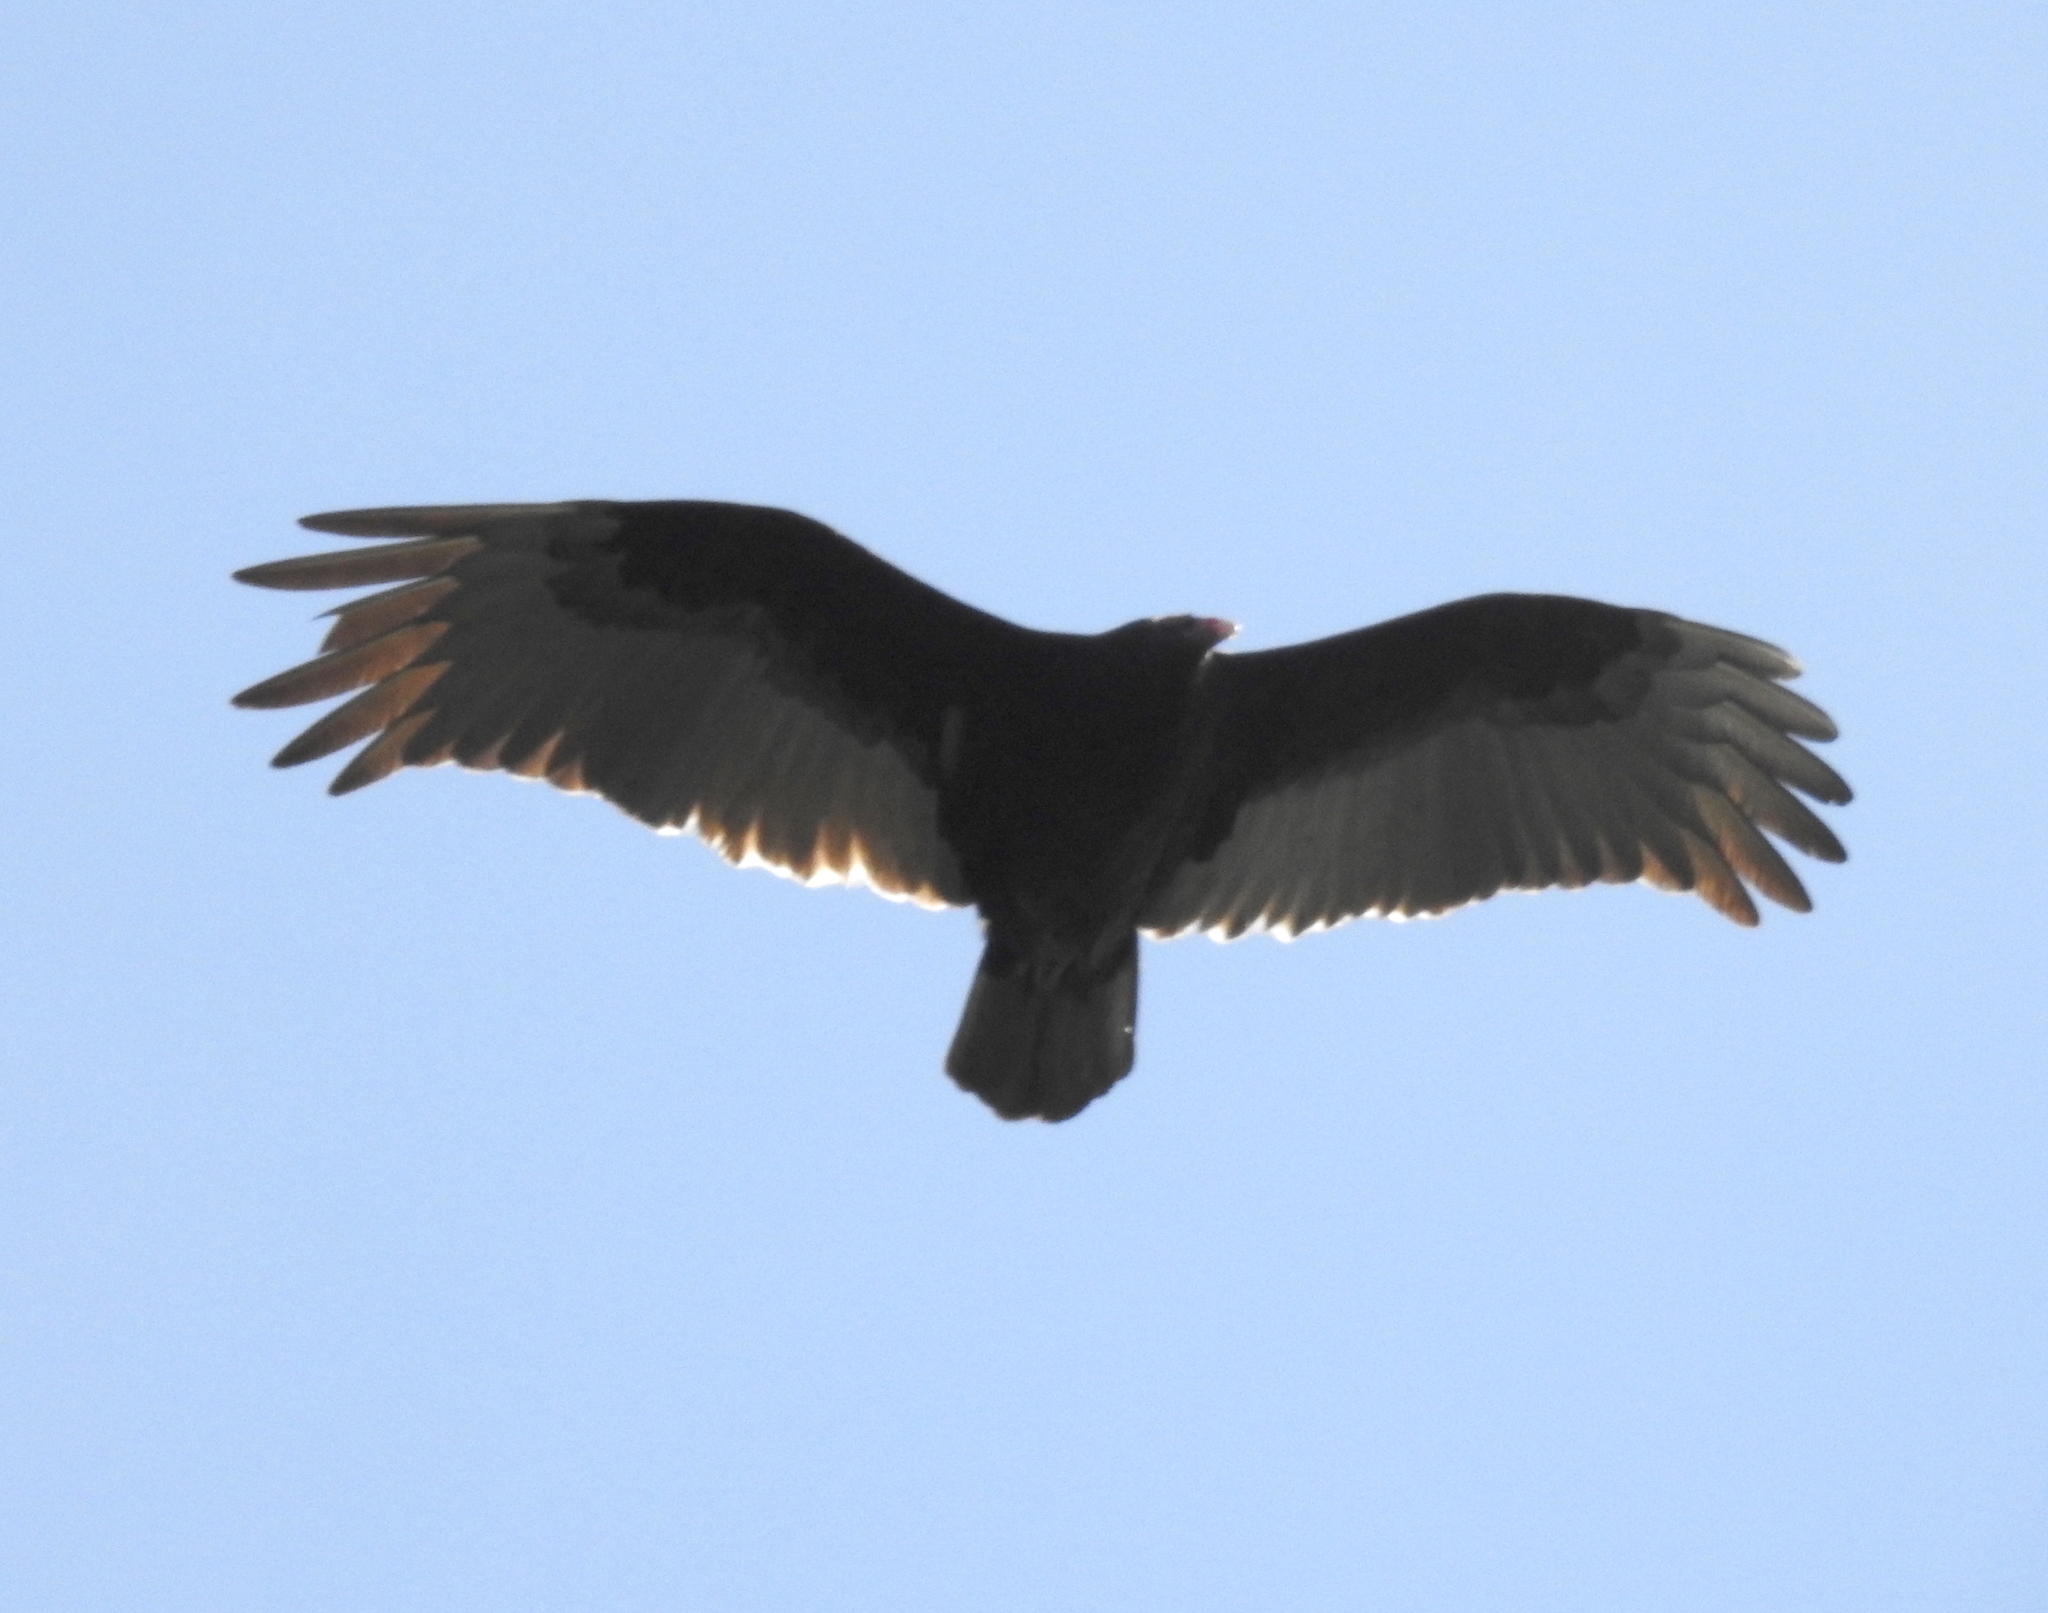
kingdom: Animalia
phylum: Chordata
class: Aves
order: Accipitriformes
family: Cathartidae
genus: Cathartes
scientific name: Cathartes aura
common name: Turkey vulture
